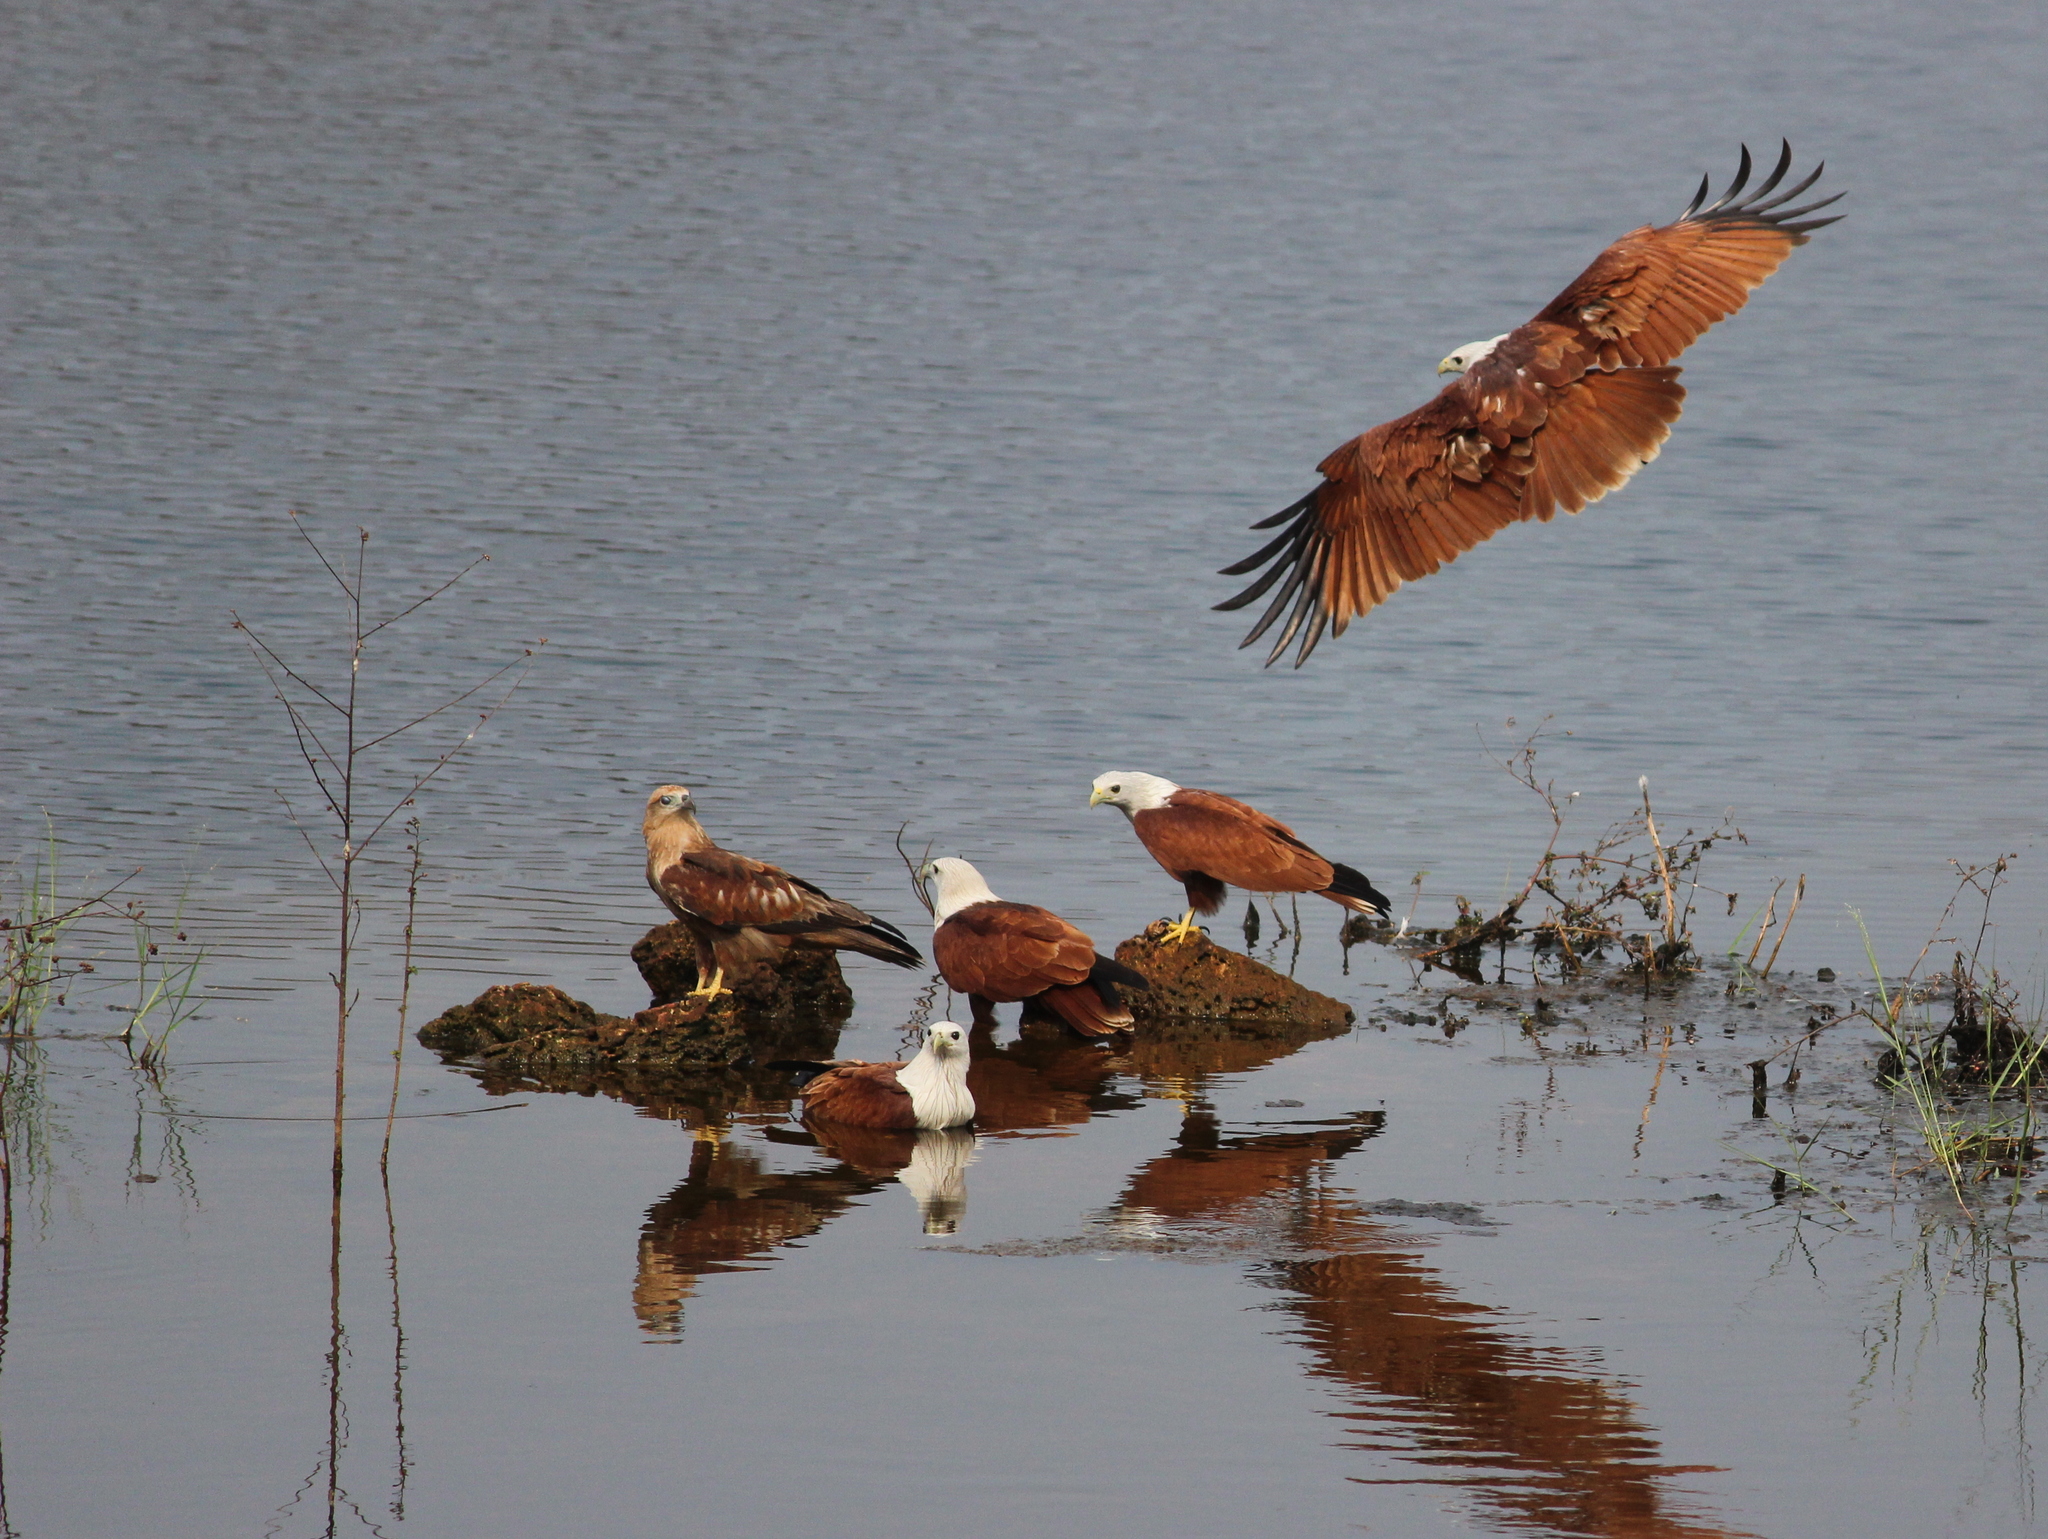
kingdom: Animalia
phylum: Chordata
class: Aves
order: Accipitriformes
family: Accipitridae
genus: Haliastur
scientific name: Haliastur indus
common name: Brahminy kite
